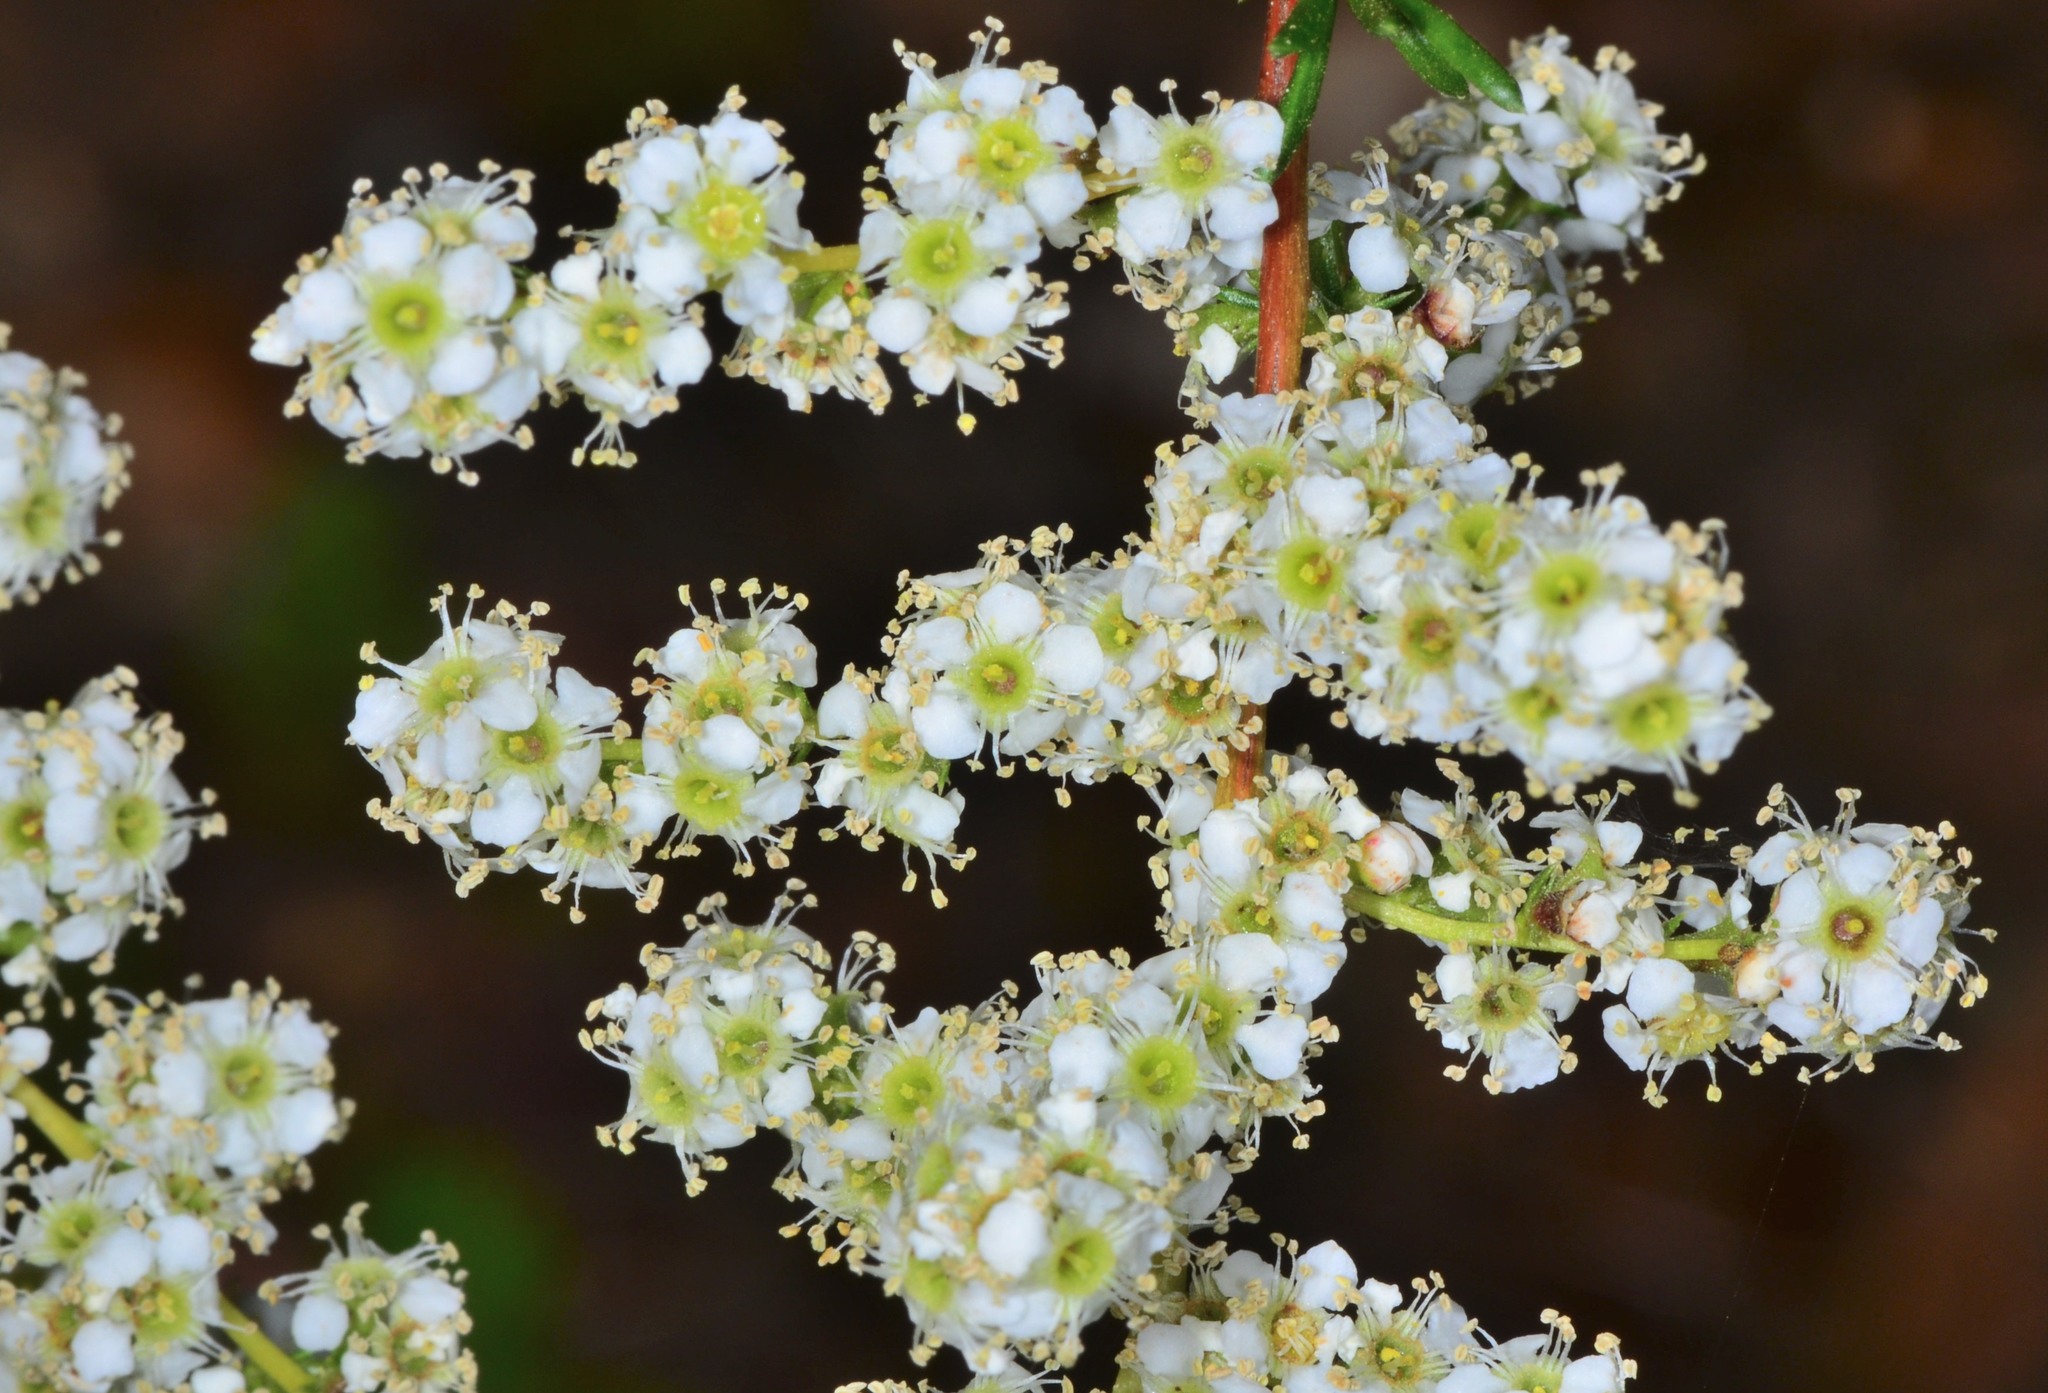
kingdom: Plantae
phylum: Tracheophyta
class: Magnoliopsida
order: Rosales
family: Rosaceae
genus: Adenostoma
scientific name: Adenostoma fasciculatum
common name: Chamise
